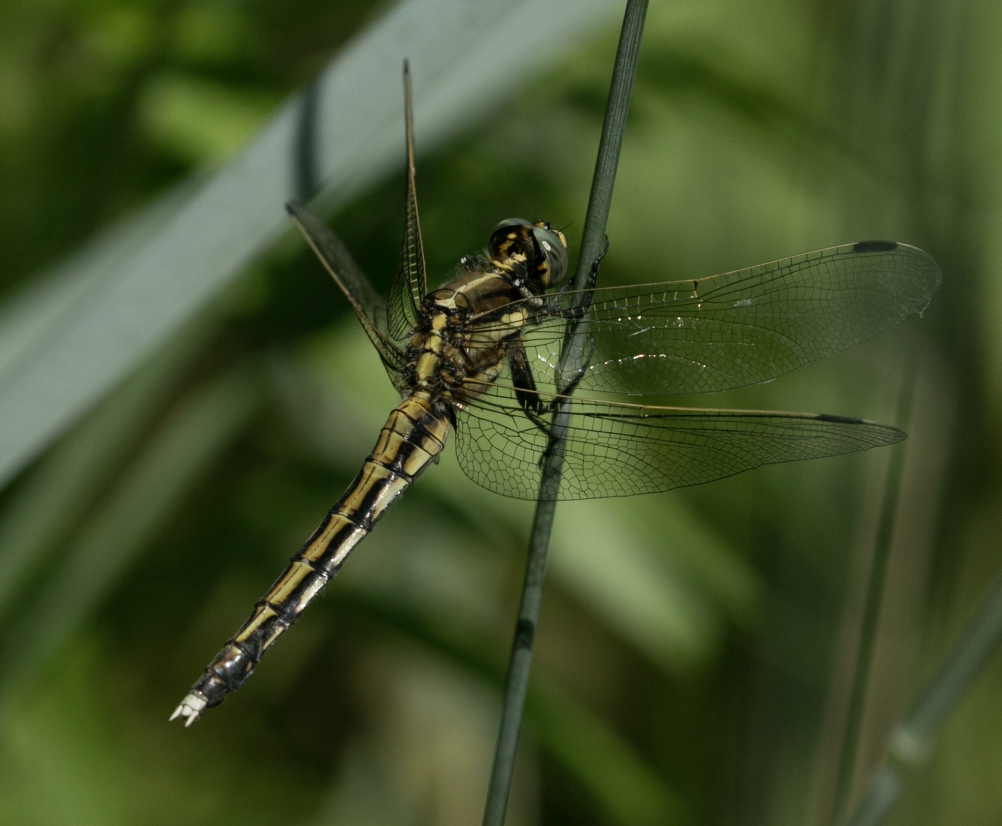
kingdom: Animalia
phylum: Arthropoda
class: Insecta
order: Odonata
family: Libellulidae
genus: Orthetrum
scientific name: Orthetrum albistylum
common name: White-tailed skimmer
